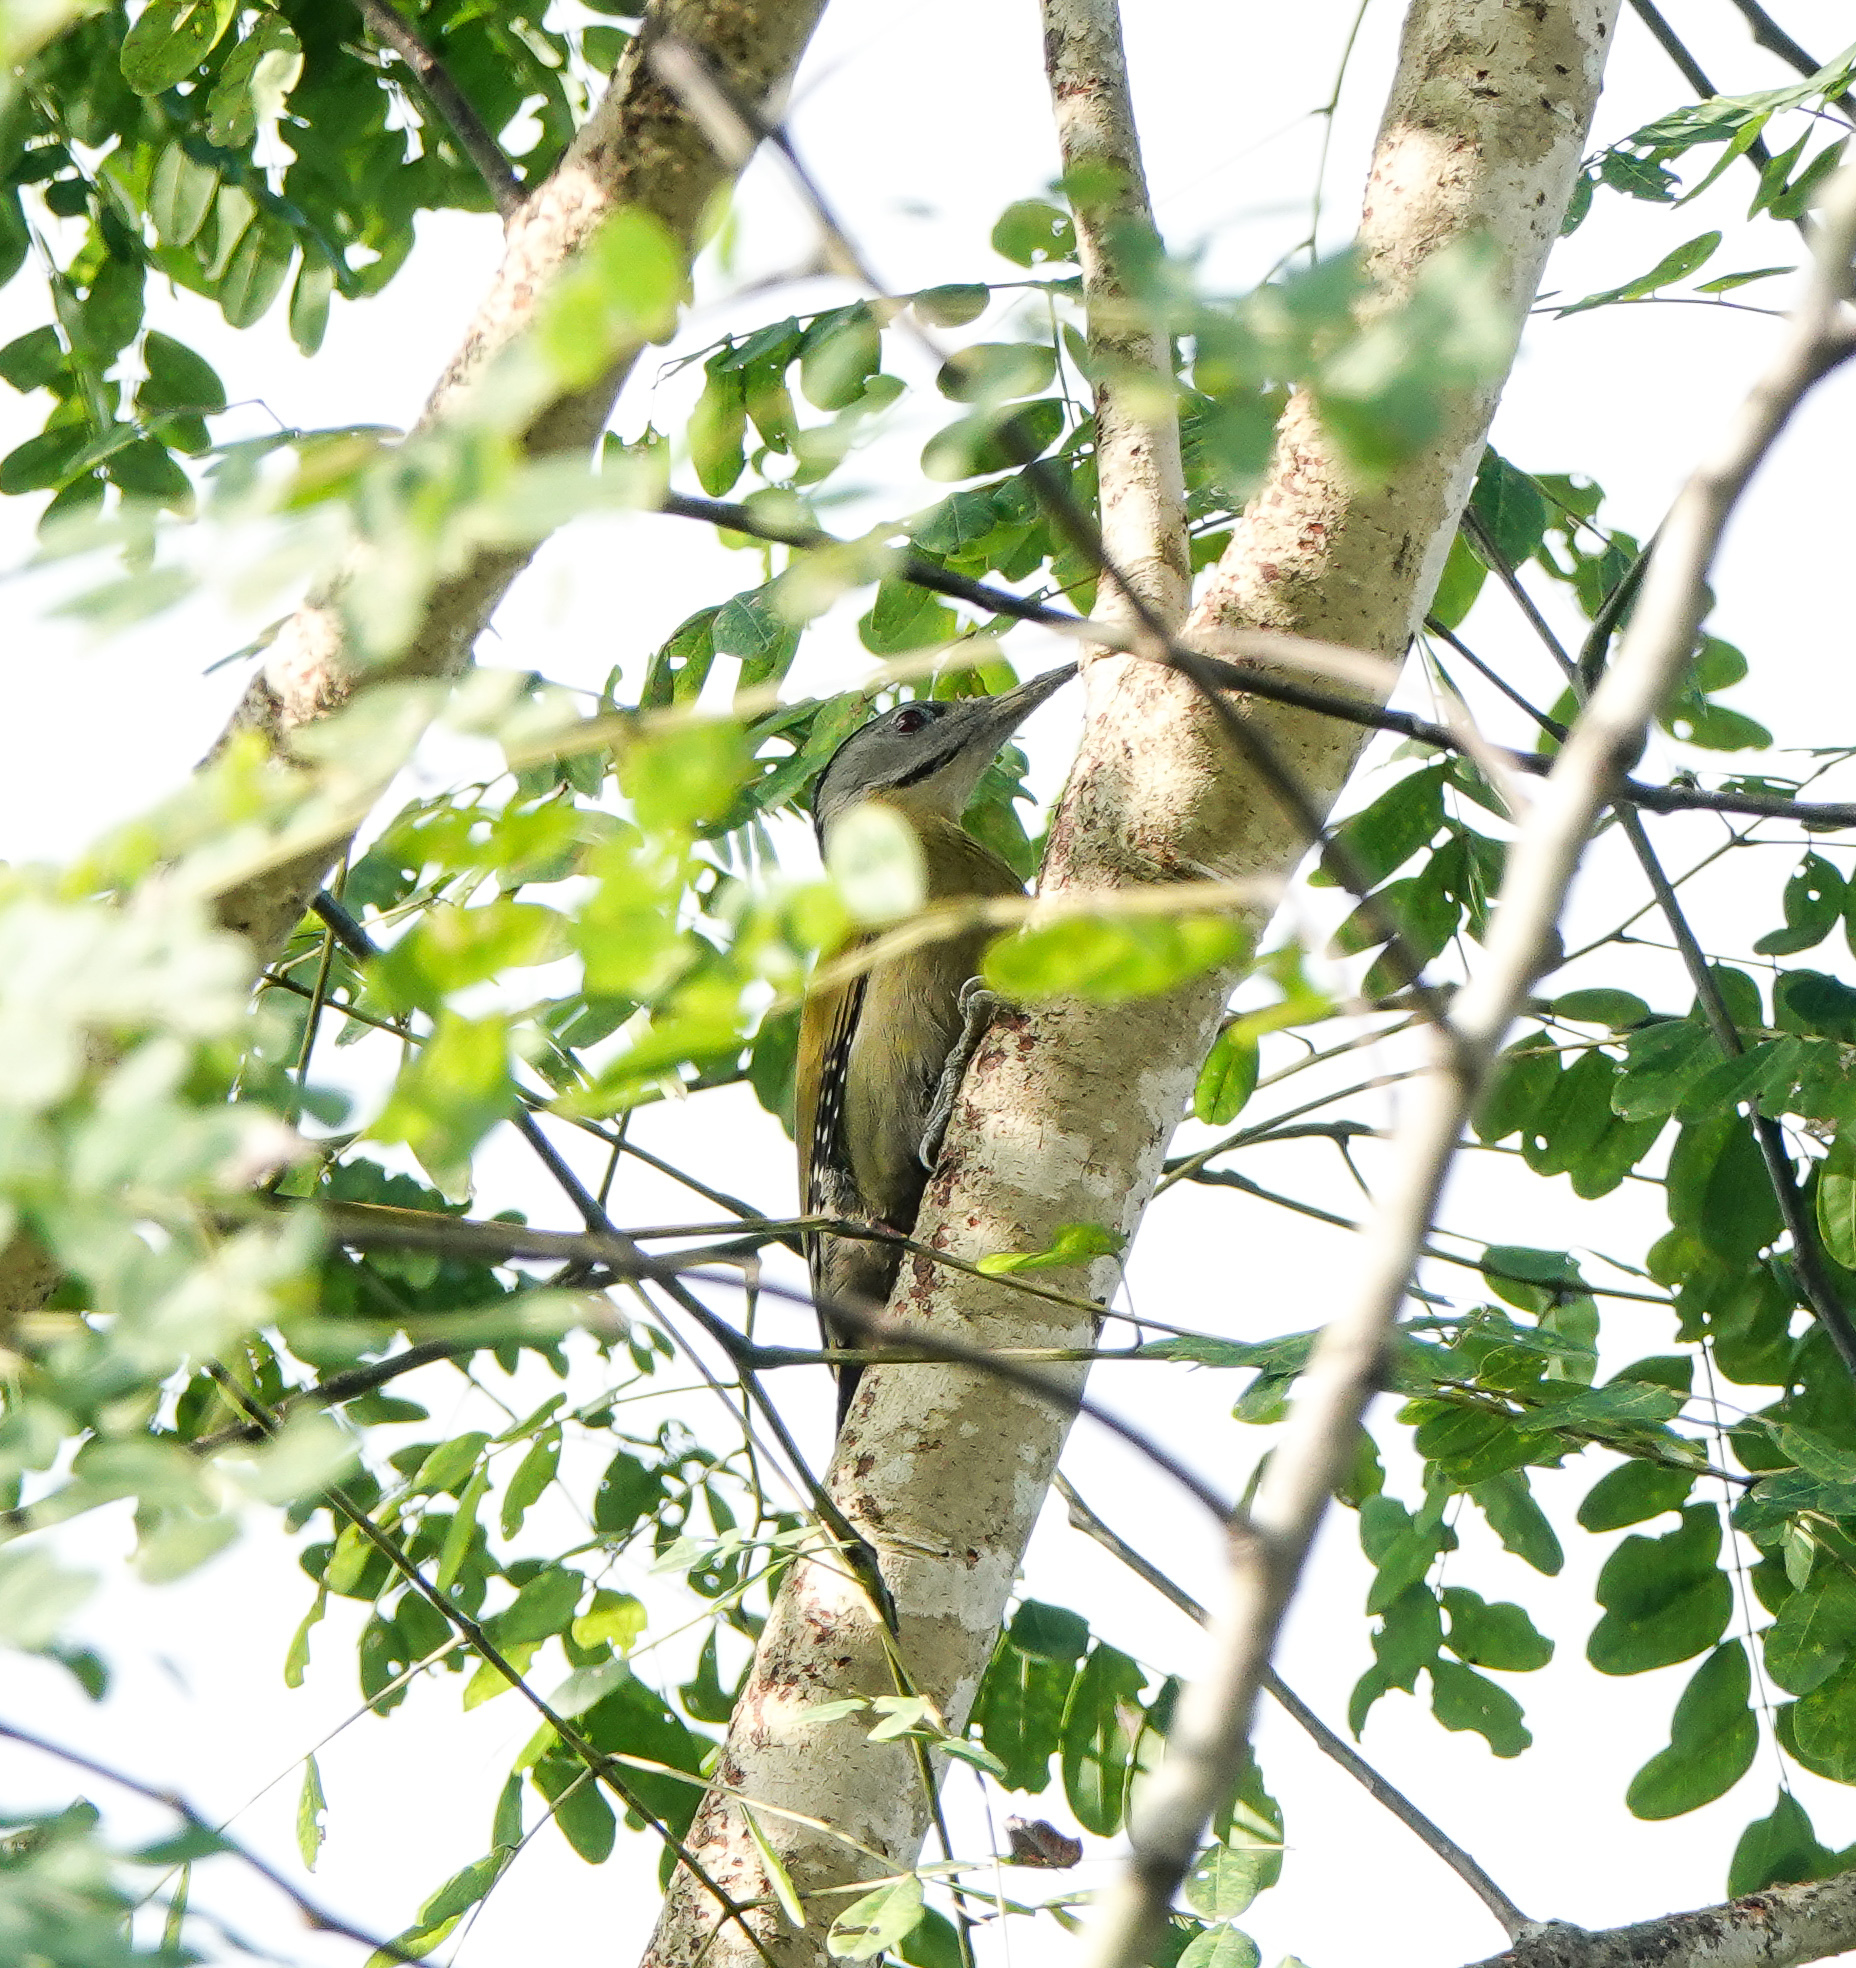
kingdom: Animalia
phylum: Chordata
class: Aves
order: Piciformes
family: Picidae
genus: Picus
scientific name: Picus canus
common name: Grey-headed woodpecker
